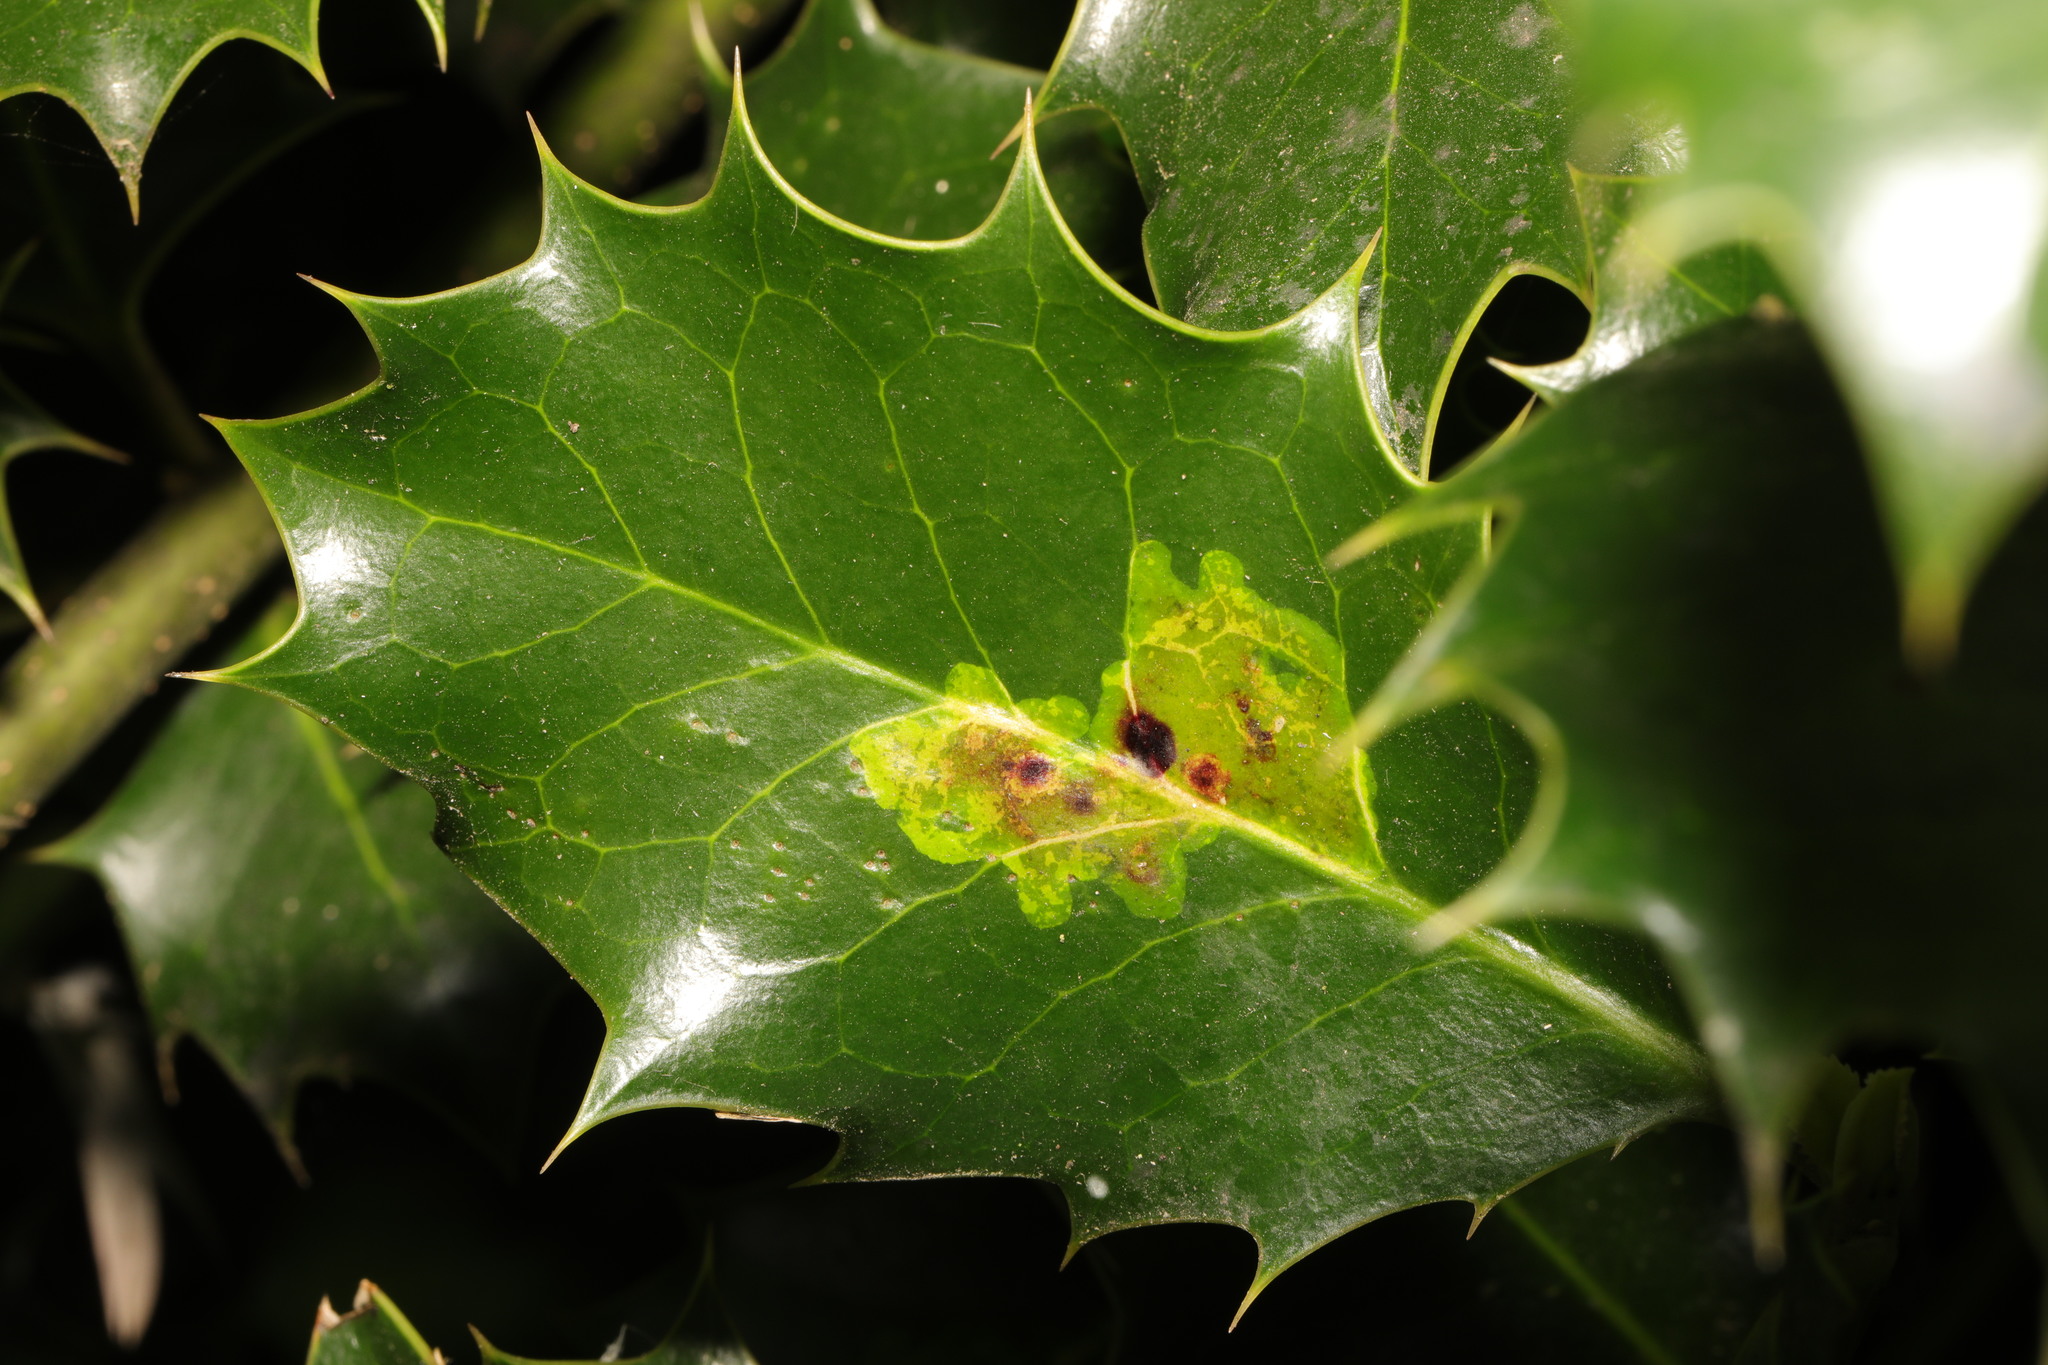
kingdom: Animalia
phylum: Arthropoda
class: Insecta
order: Diptera
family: Agromyzidae
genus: Phytomyza
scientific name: Phytomyza ilicis
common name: Holly leafminer
